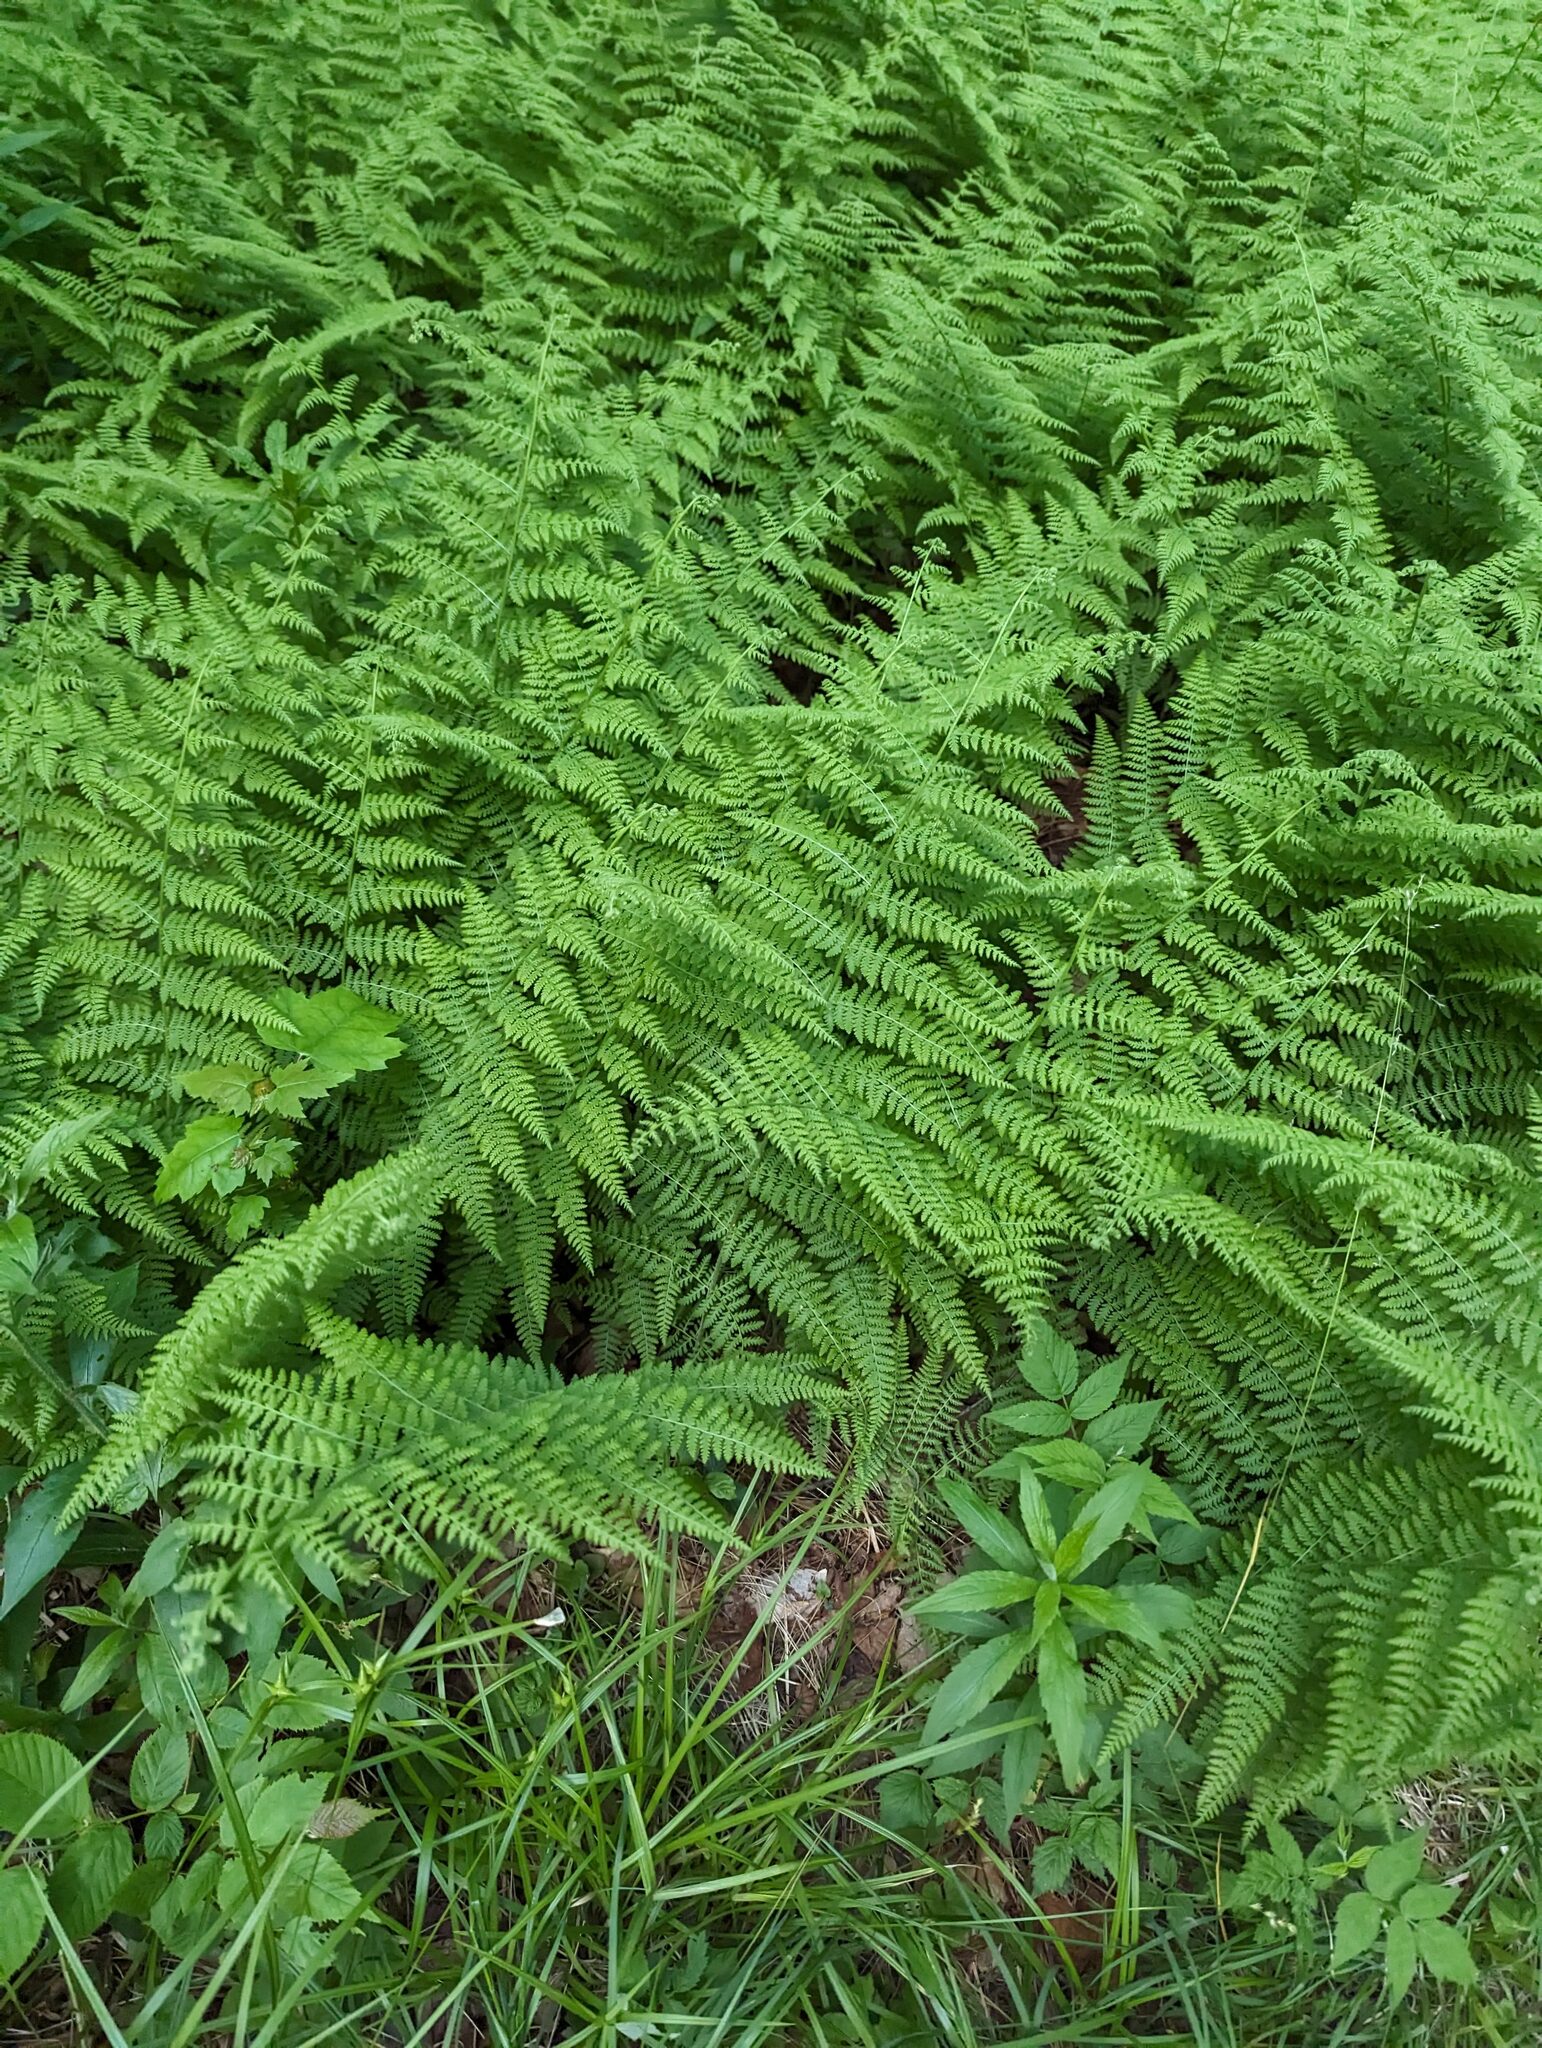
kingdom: Plantae
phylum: Tracheophyta
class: Polypodiopsida
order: Polypodiales
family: Dennstaedtiaceae
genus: Sitobolium
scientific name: Sitobolium punctilobum
